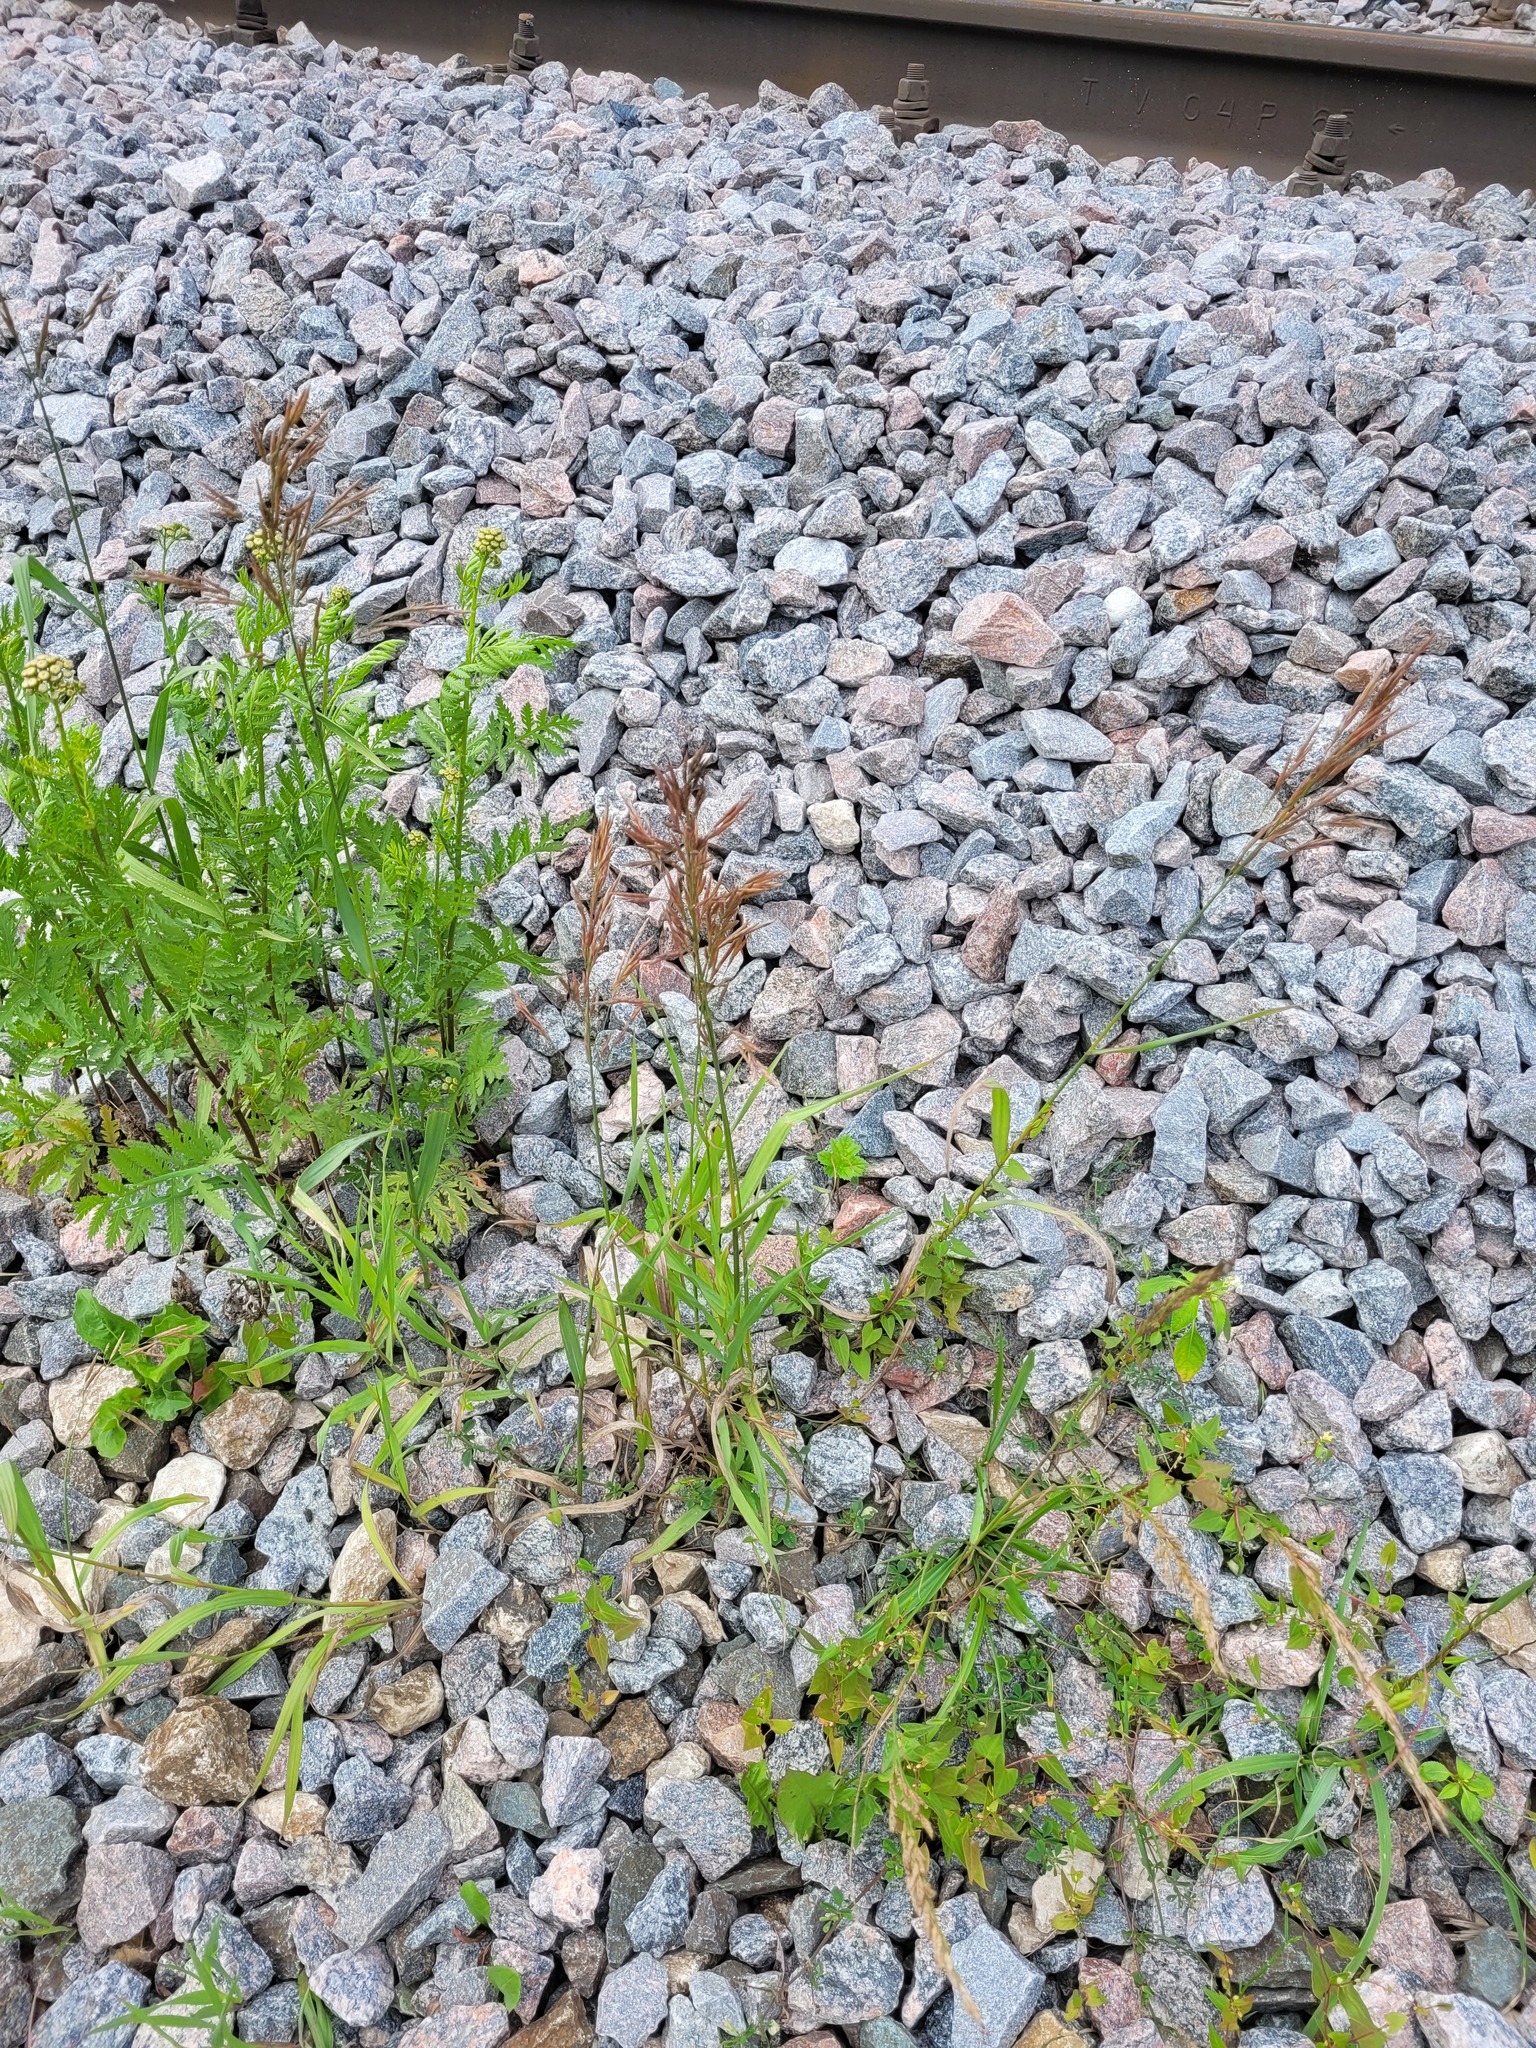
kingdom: Plantae
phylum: Tracheophyta
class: Liliopsida
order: Poales
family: Poaceae
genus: Bromus
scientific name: Bromus inermis
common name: Smooth brome
